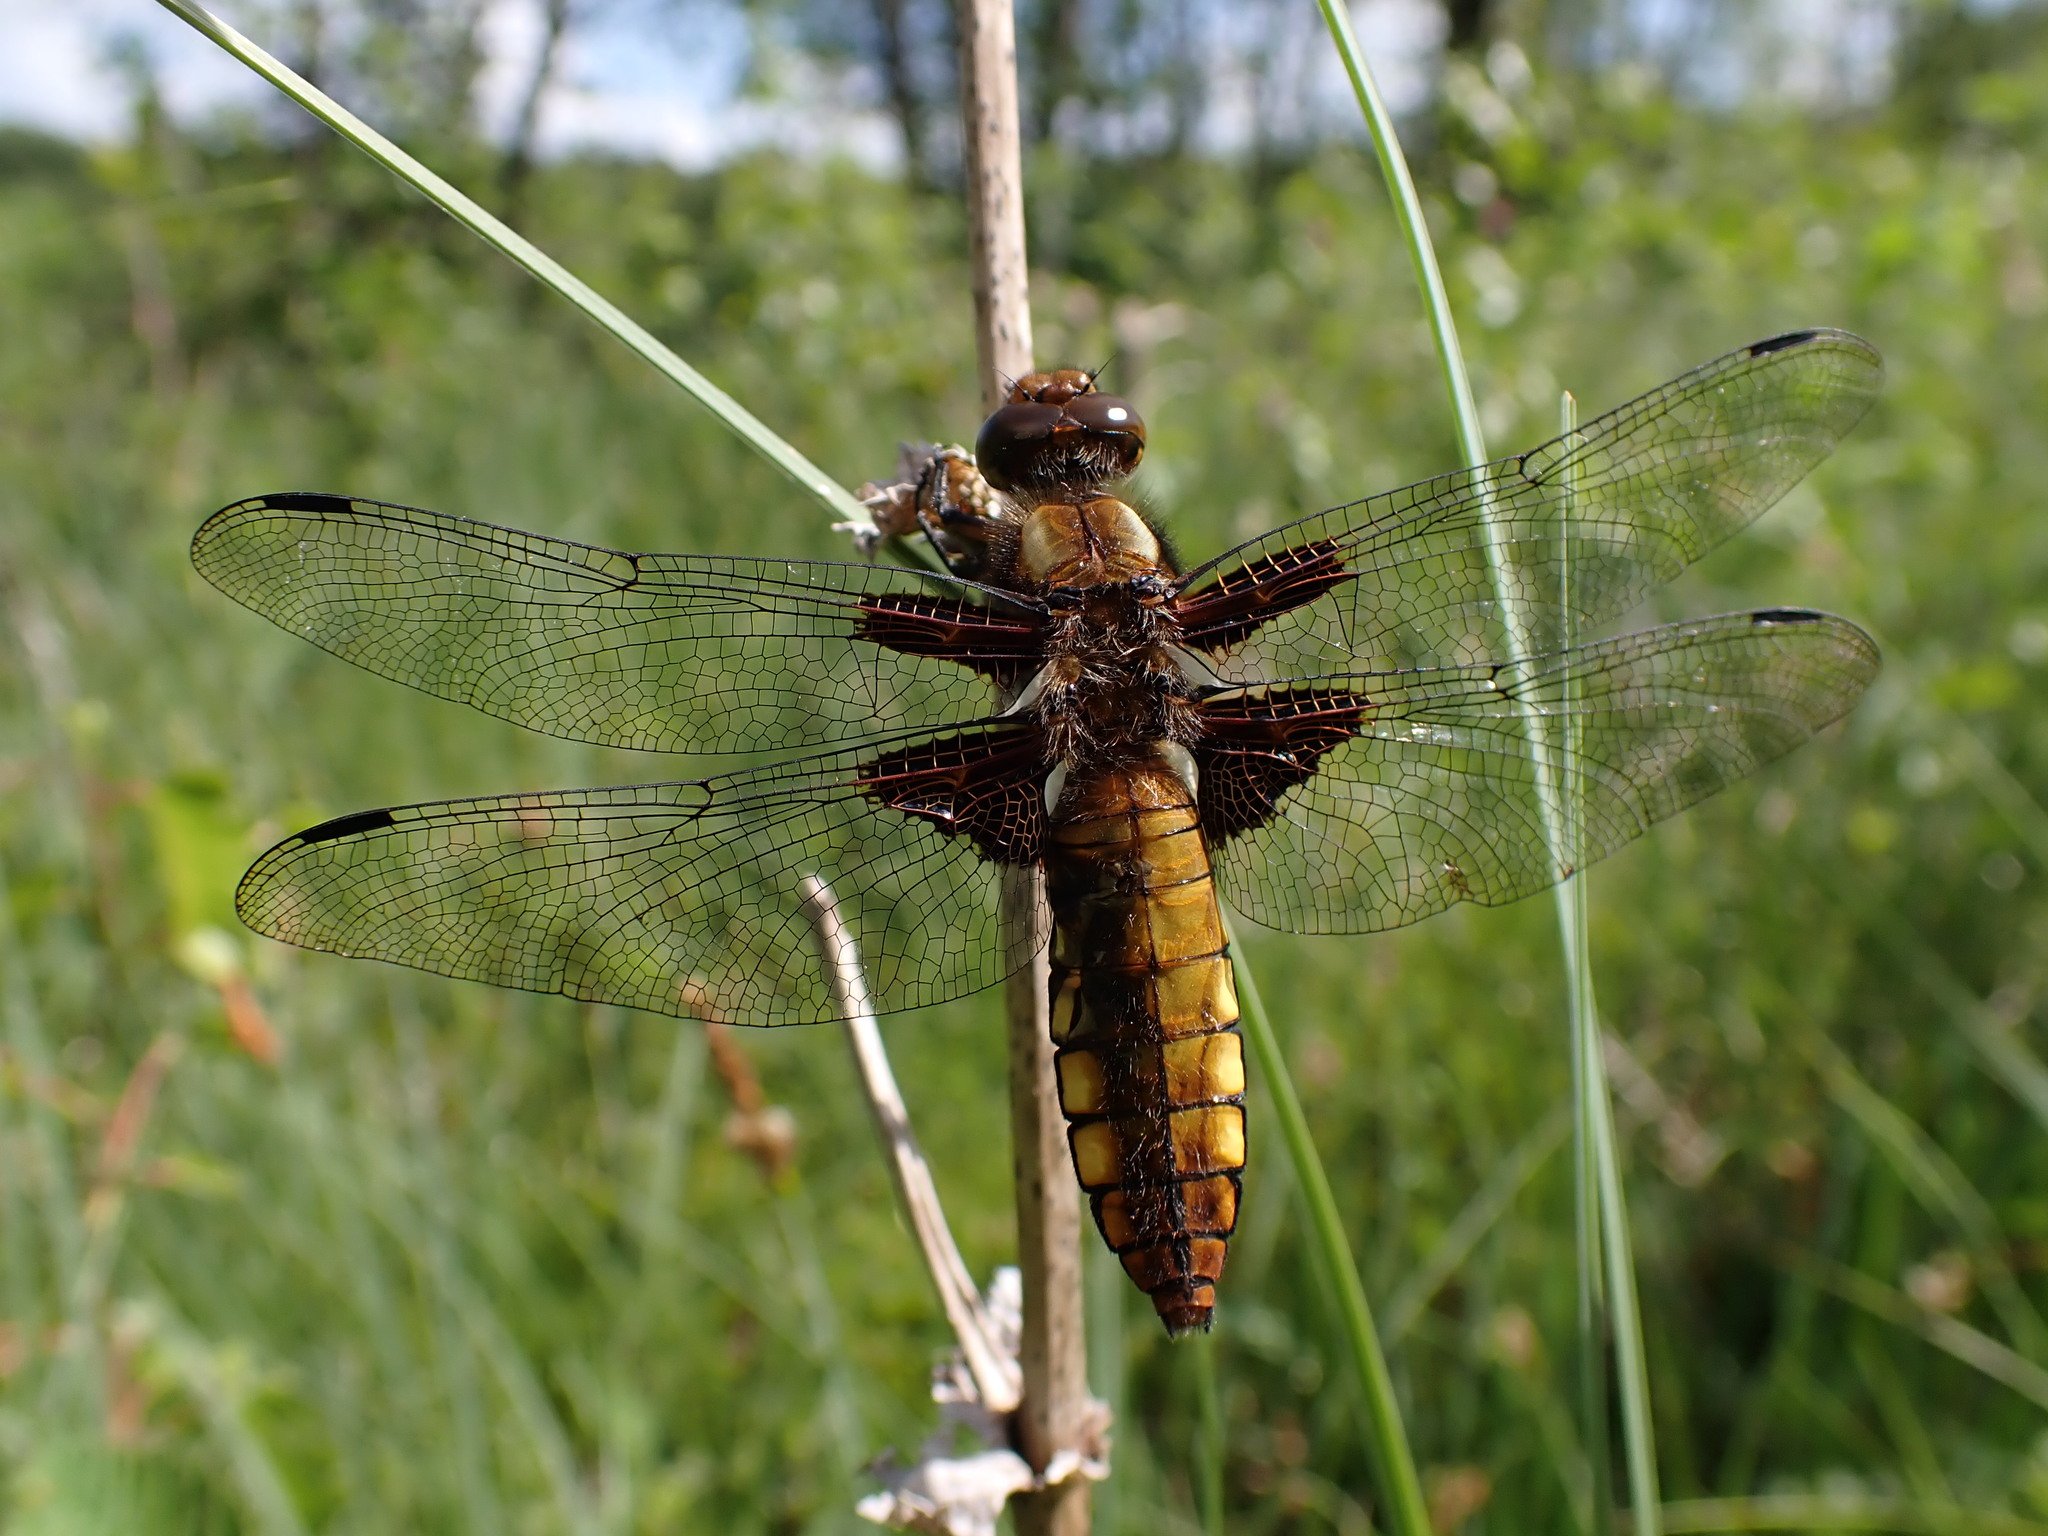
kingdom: Animalia
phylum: Arthropoda
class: Insecta
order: Odonata
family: Libellulidae
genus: Libellula
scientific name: Libellula depressa
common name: Broad-bodied chaser
